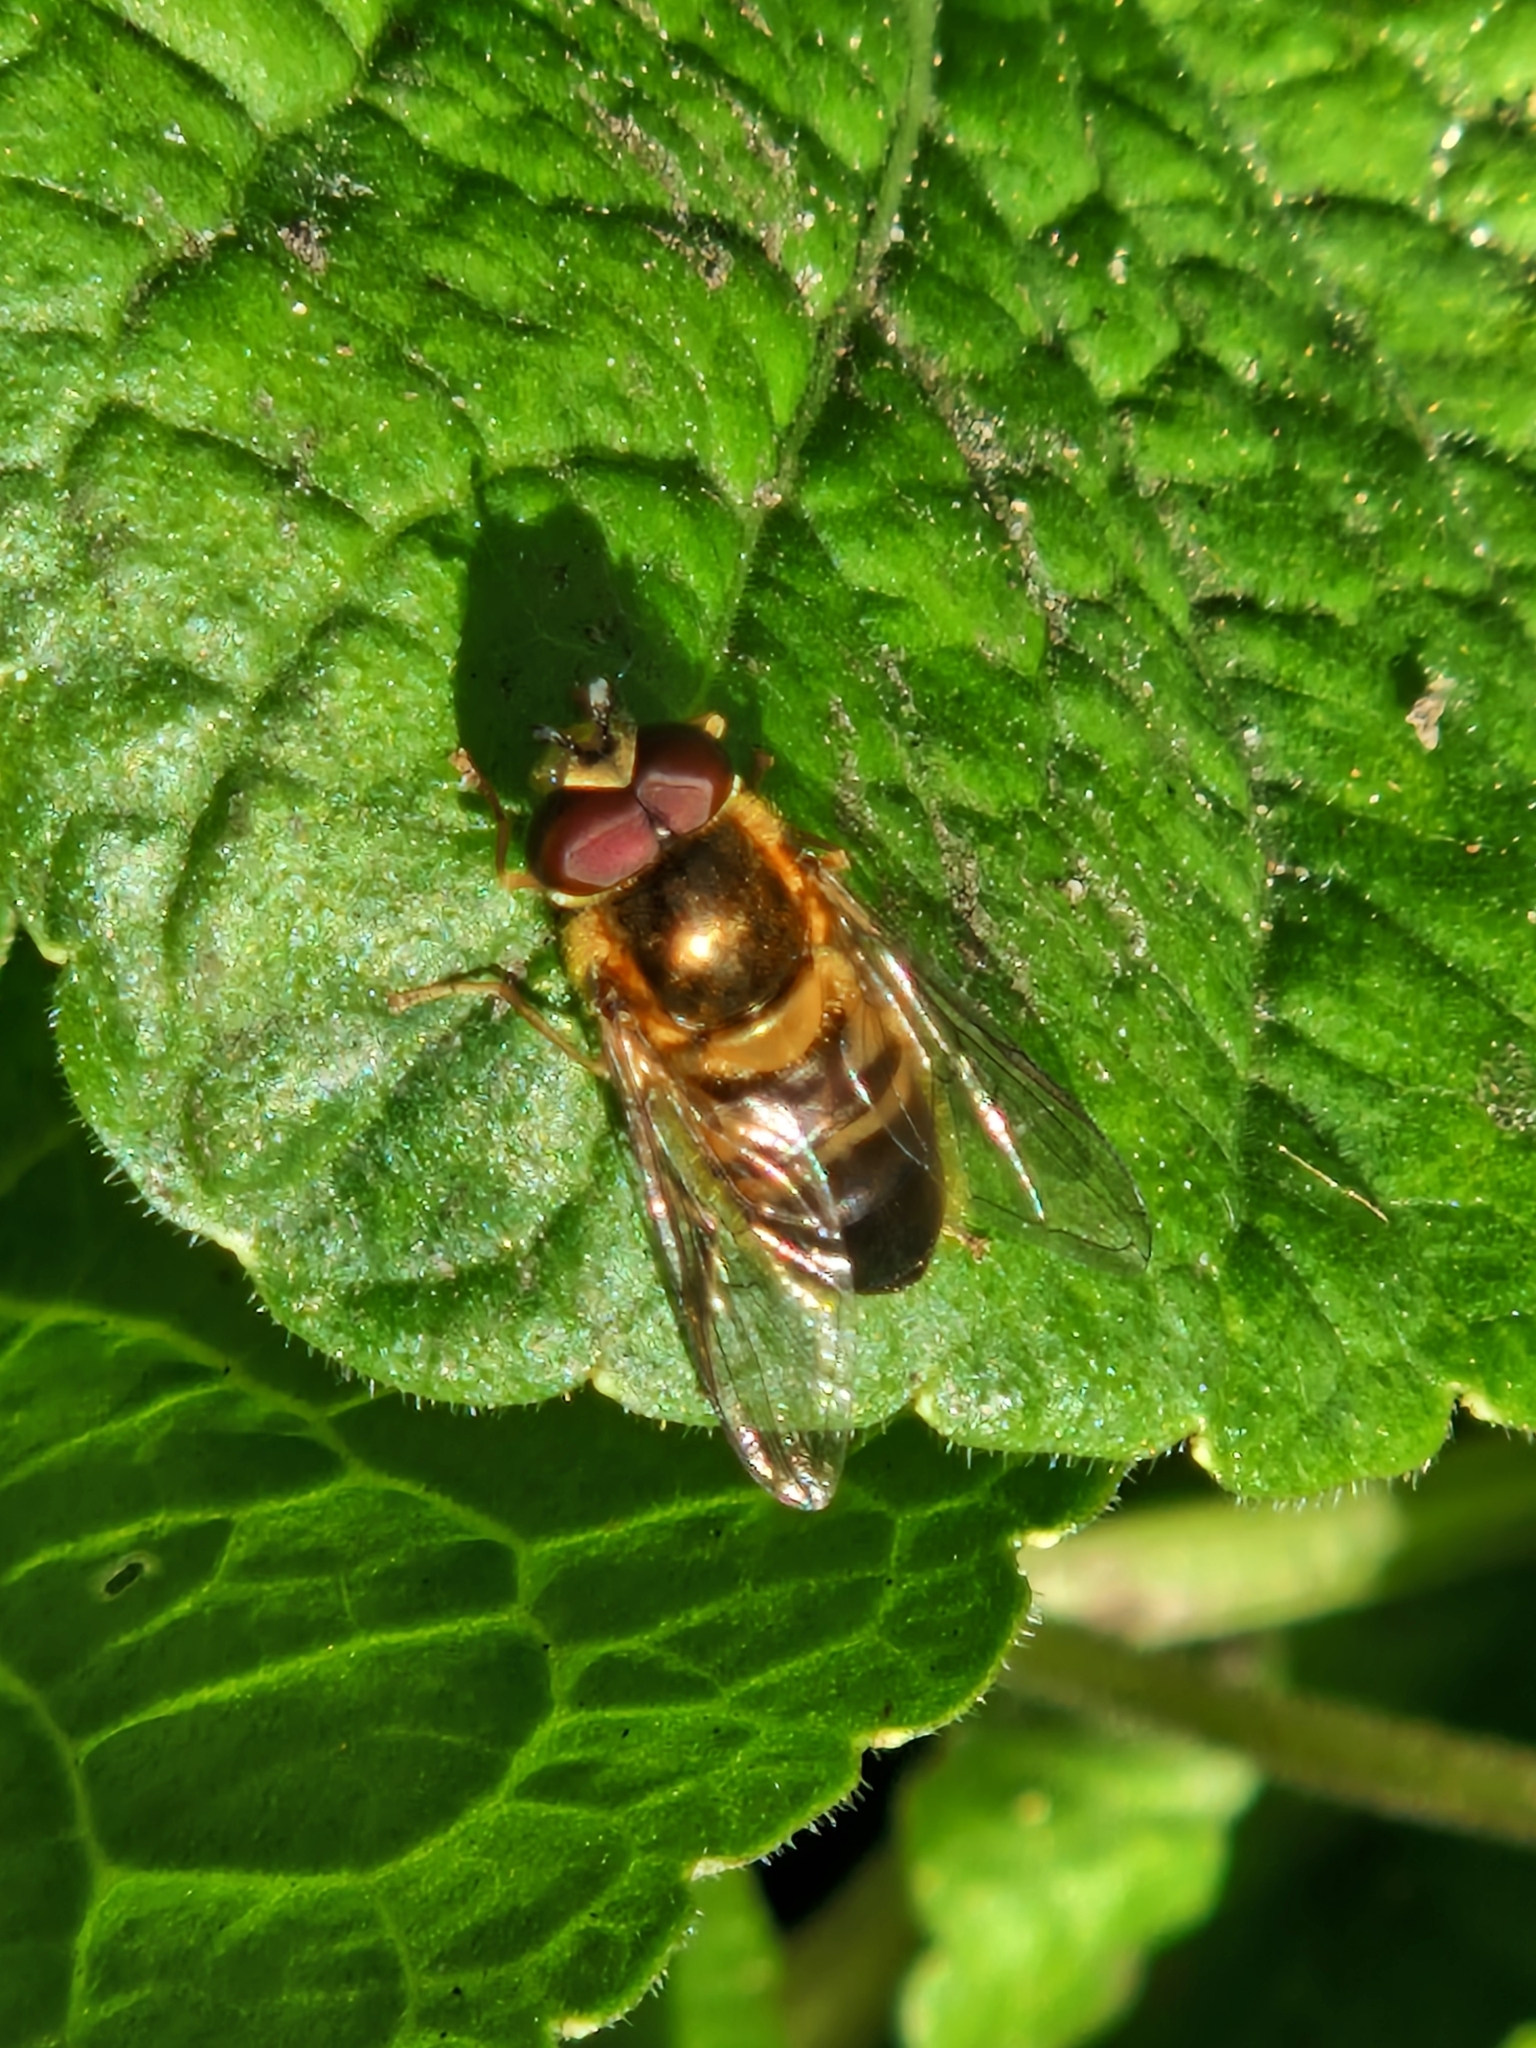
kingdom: Animalia
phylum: Arthropoda
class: Insecta
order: Diptera
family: Syrphidae
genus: Epistrophe
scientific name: Epistrophe eligans
